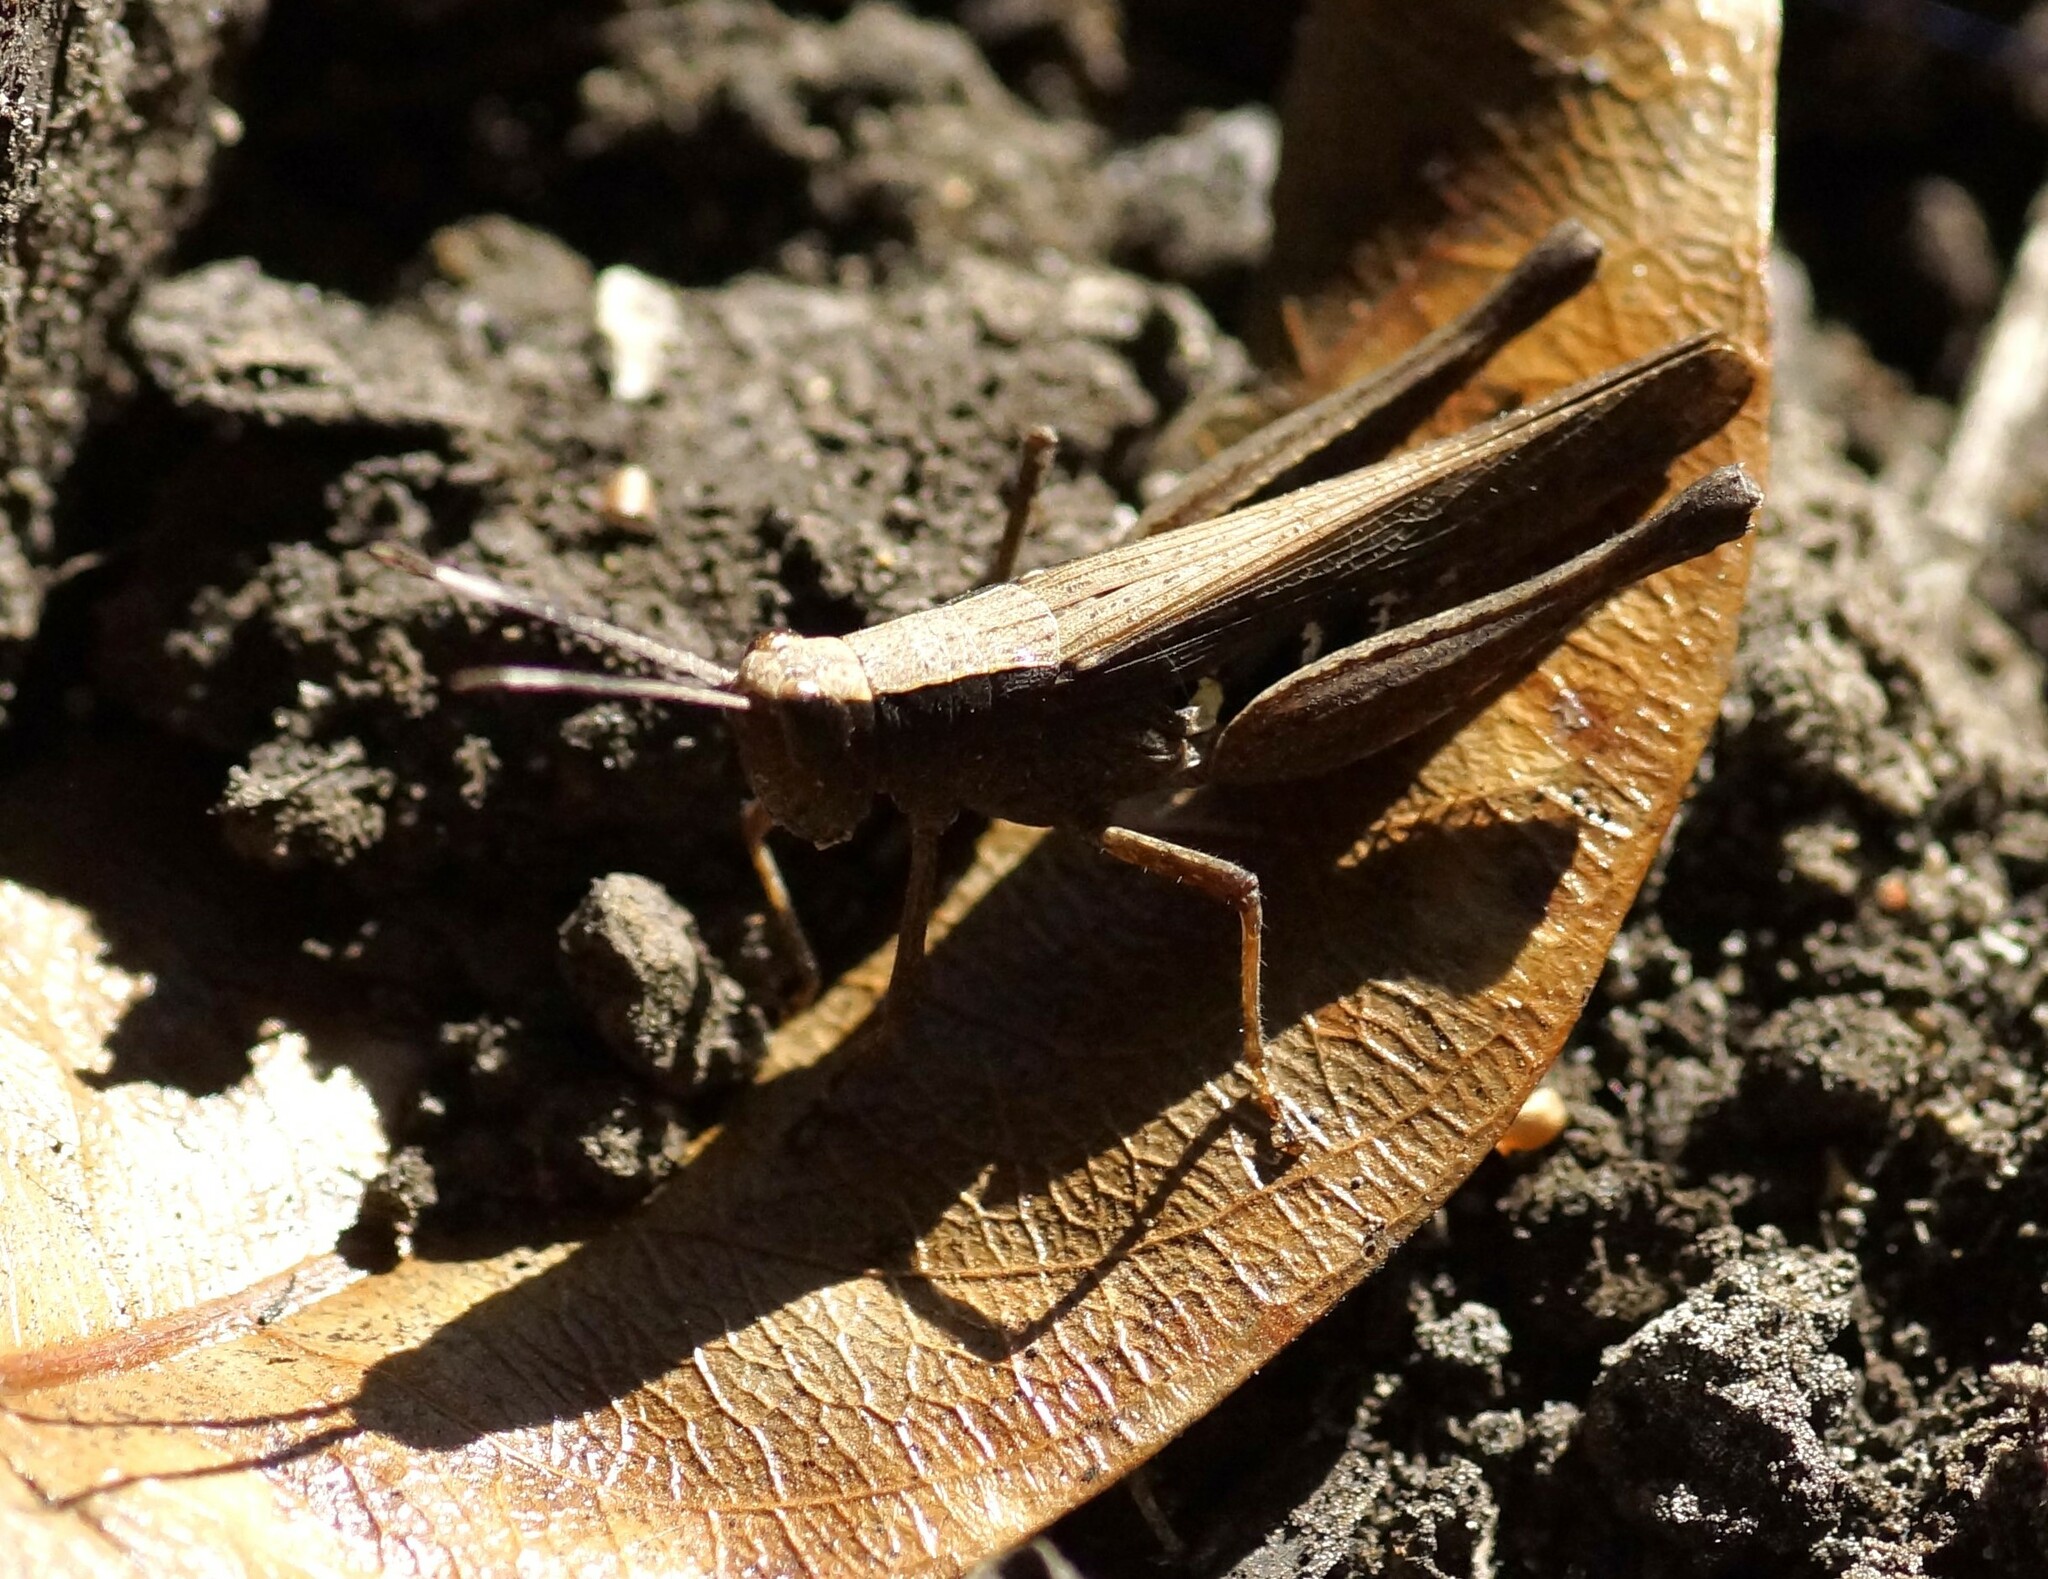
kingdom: Animalia
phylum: Arthropoda
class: Insecta
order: Orthoptera
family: Acrididae
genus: Rectitropis
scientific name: Rectitropis exclusa
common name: Territory white-tips
